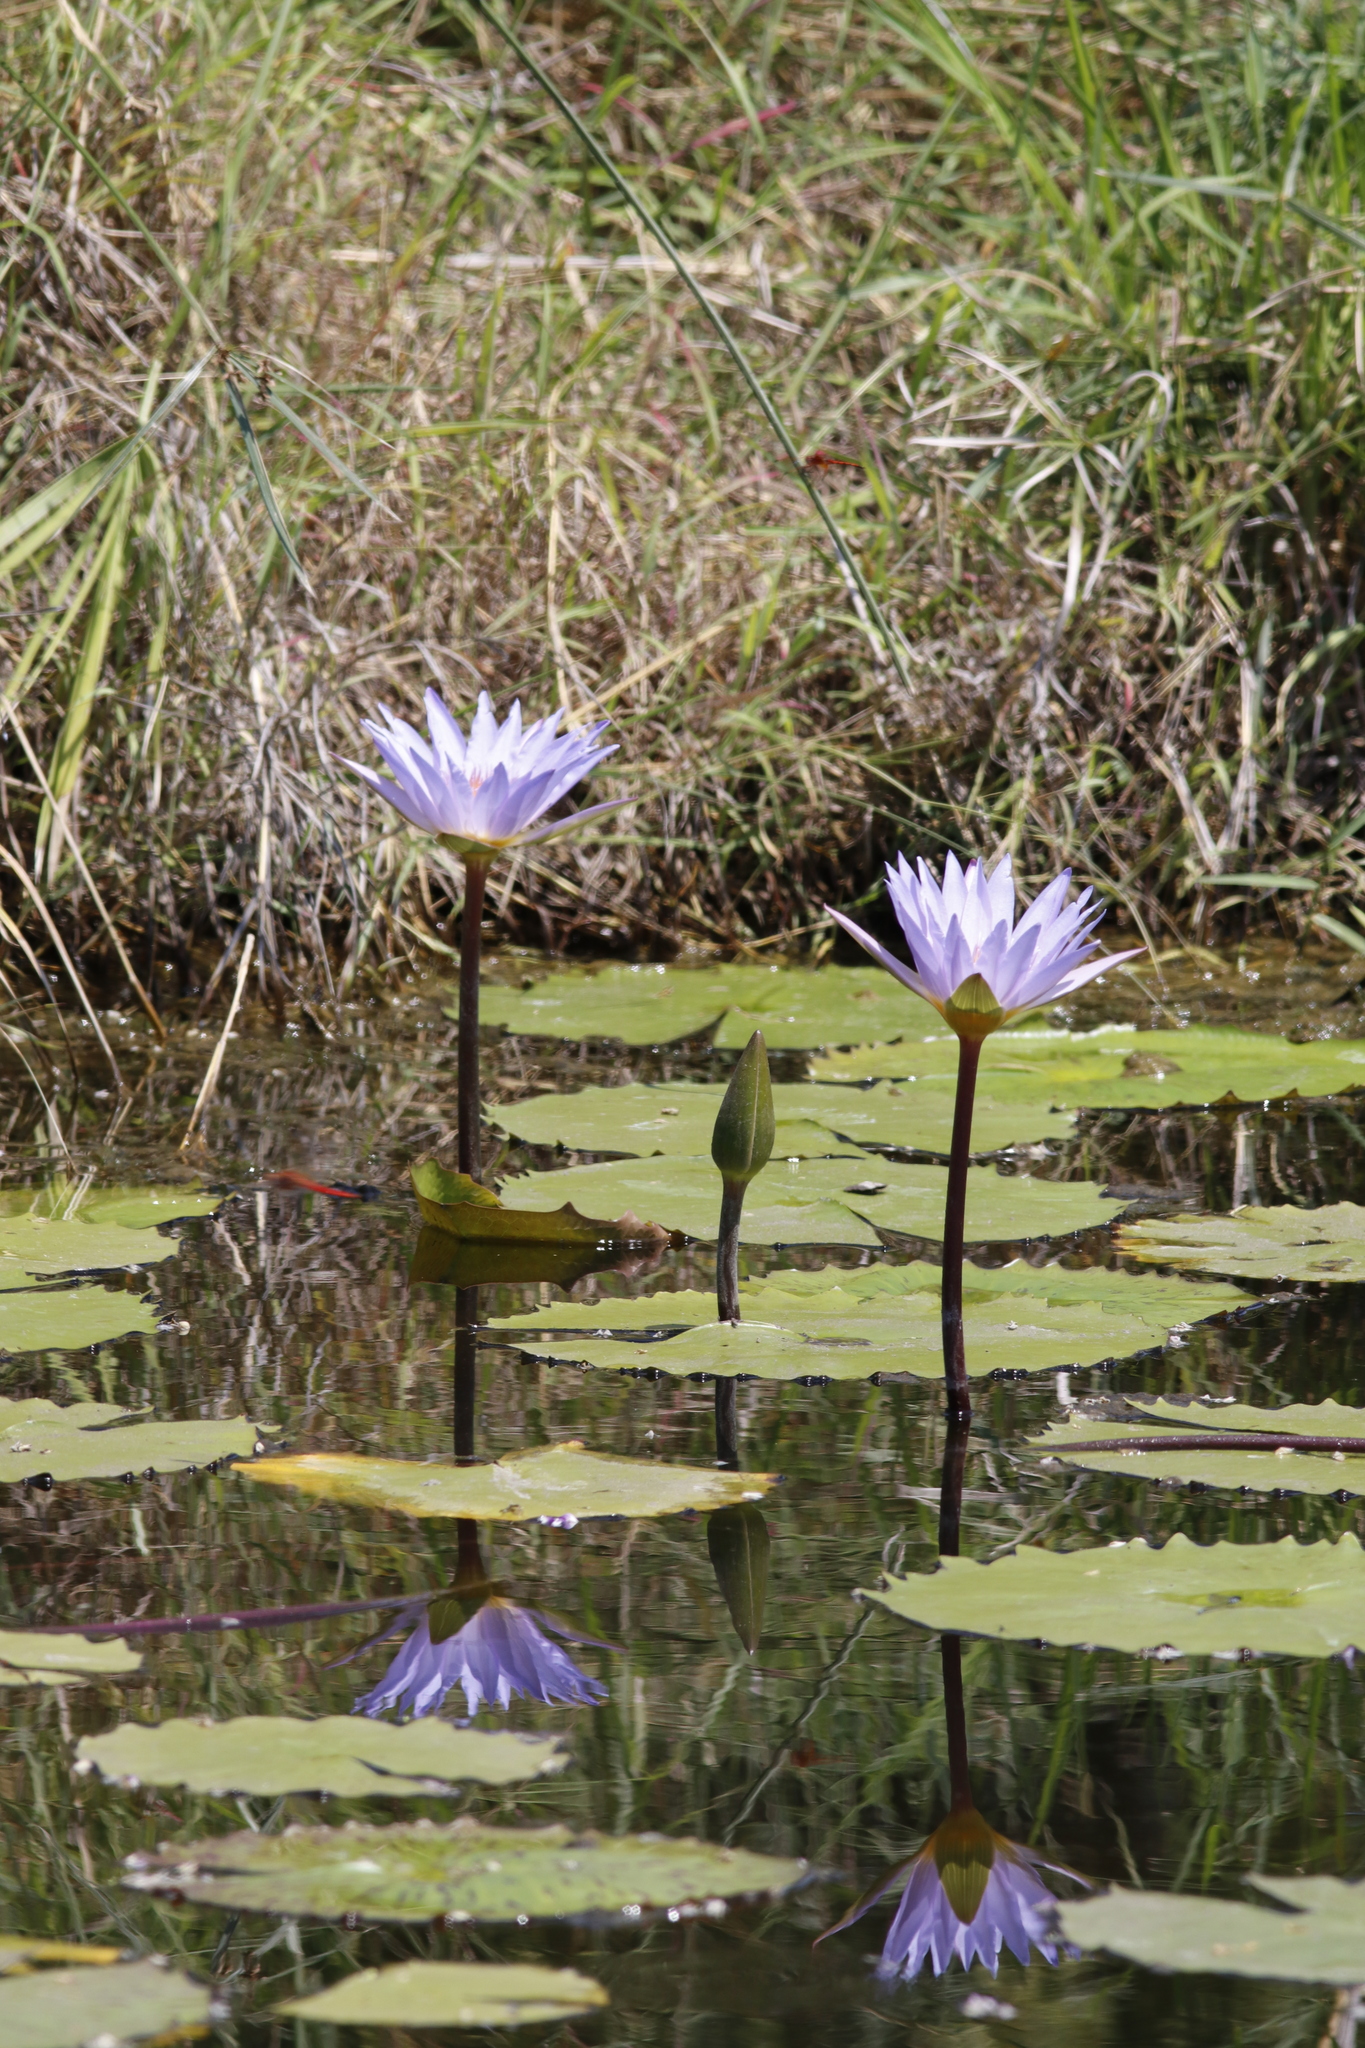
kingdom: Plantae
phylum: Tracheophyta
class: Magnoliopsida
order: Nymphaeales
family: Nymphaeaceae
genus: Nymphaea
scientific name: Nymphaea nouchali
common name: Blue lotus
